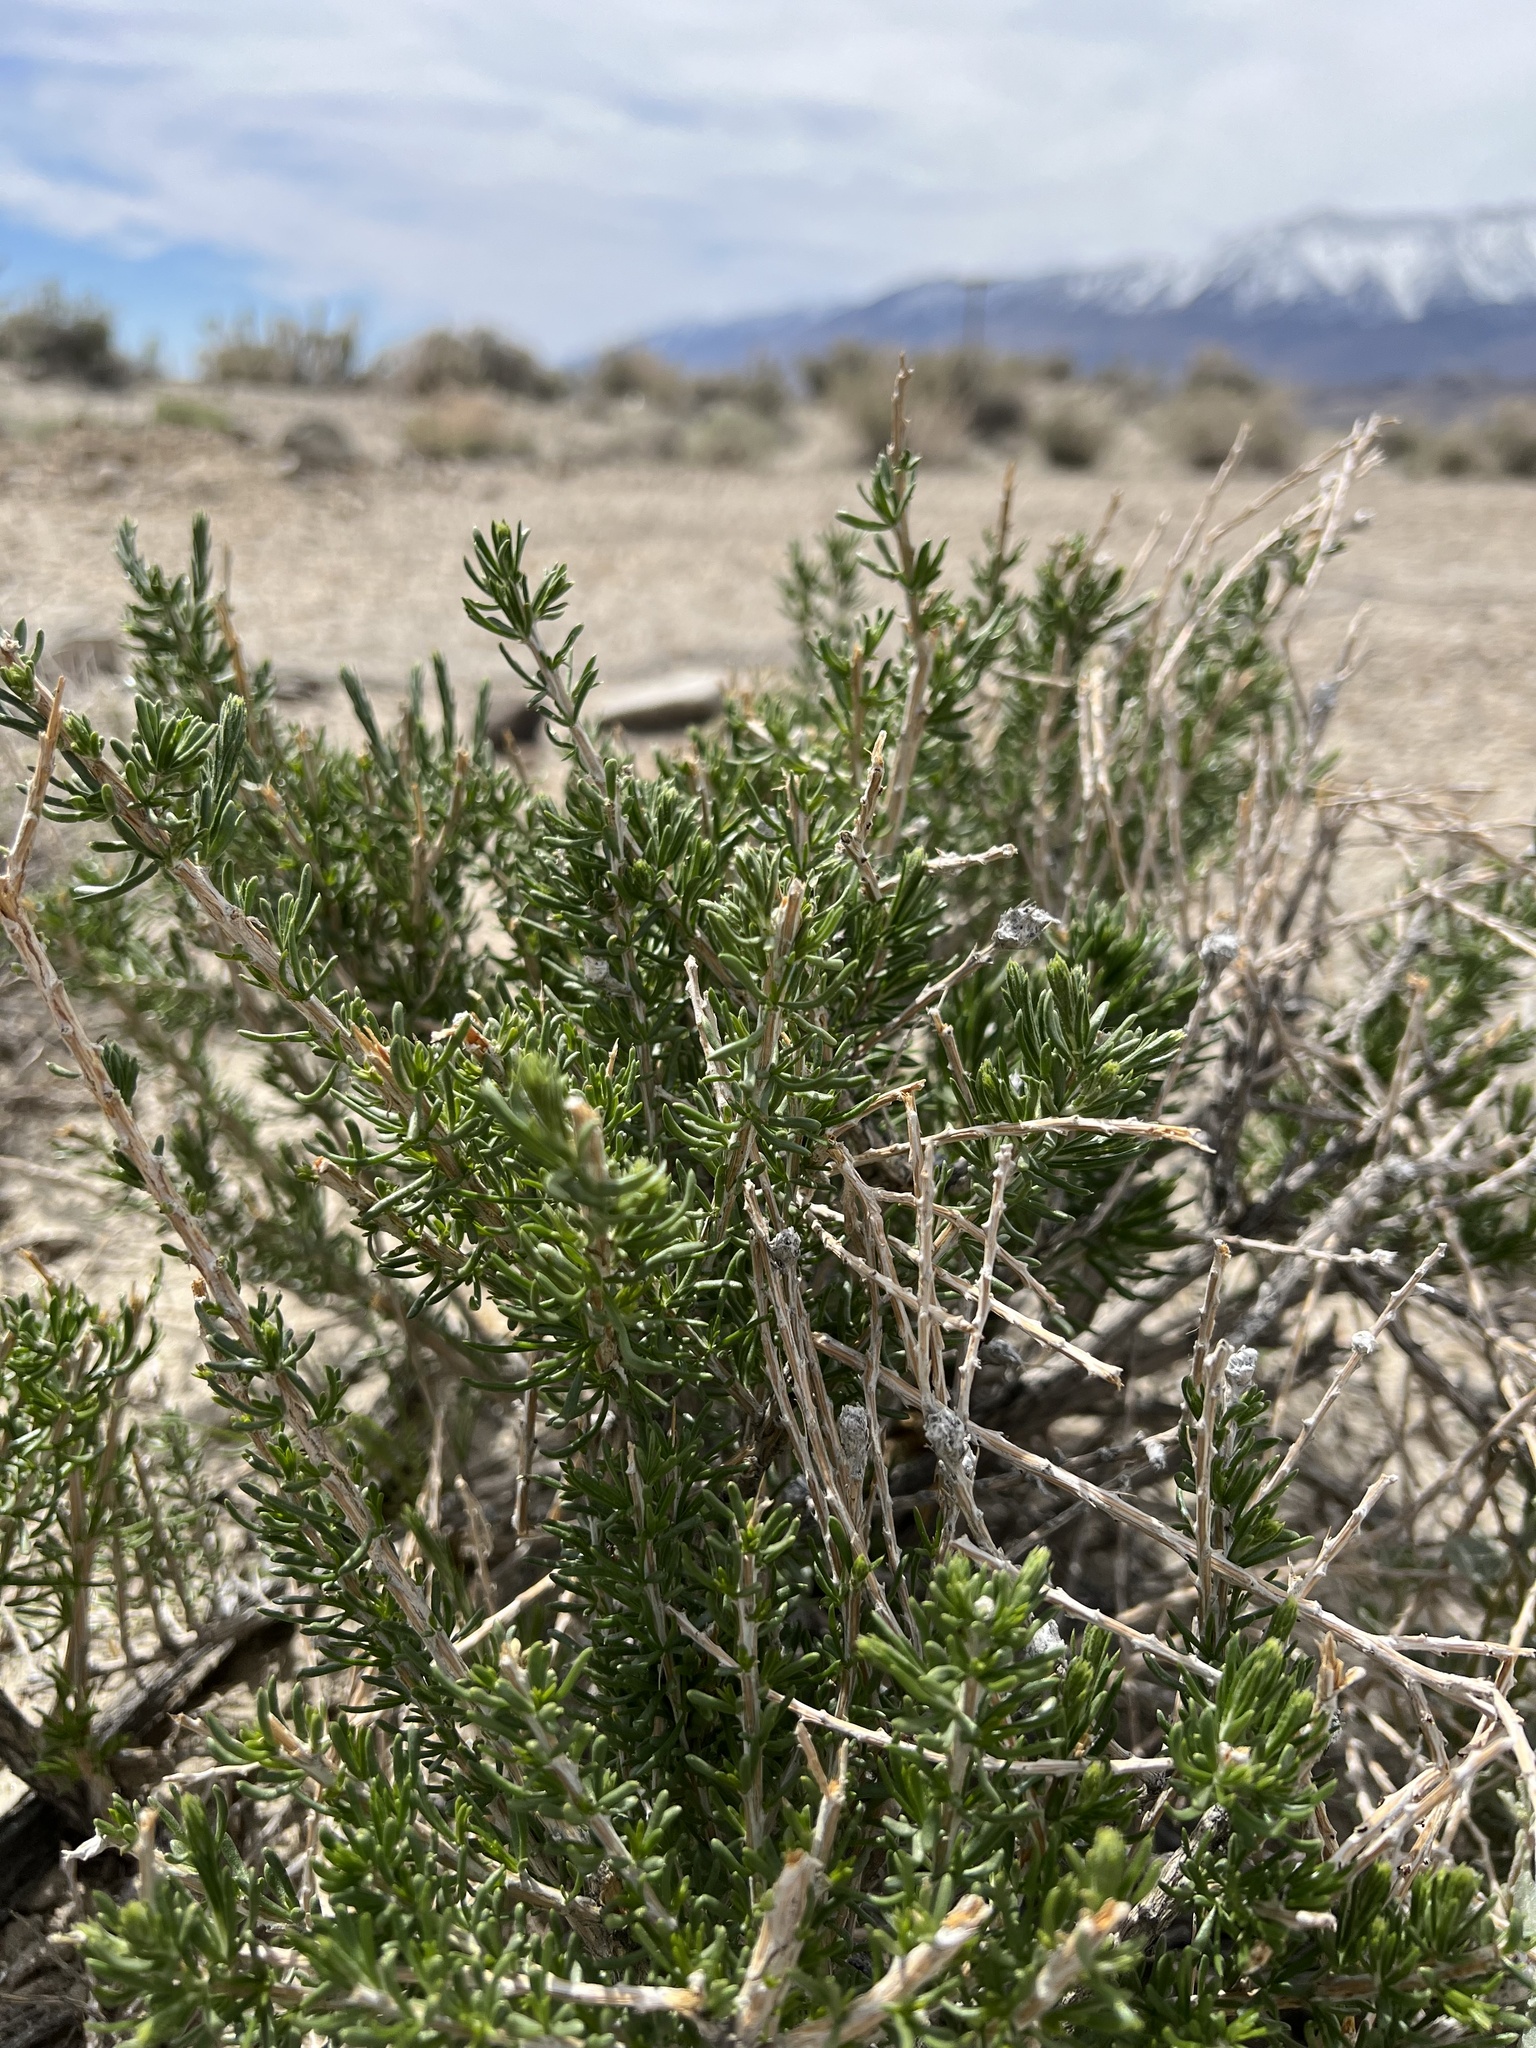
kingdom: Plantae
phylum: Tracheophyta
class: Magnoliopsida
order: Asterales
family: Asteraceae
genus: Tetradymia
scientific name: Tetradymia glabrata
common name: Smooth tetradymia
